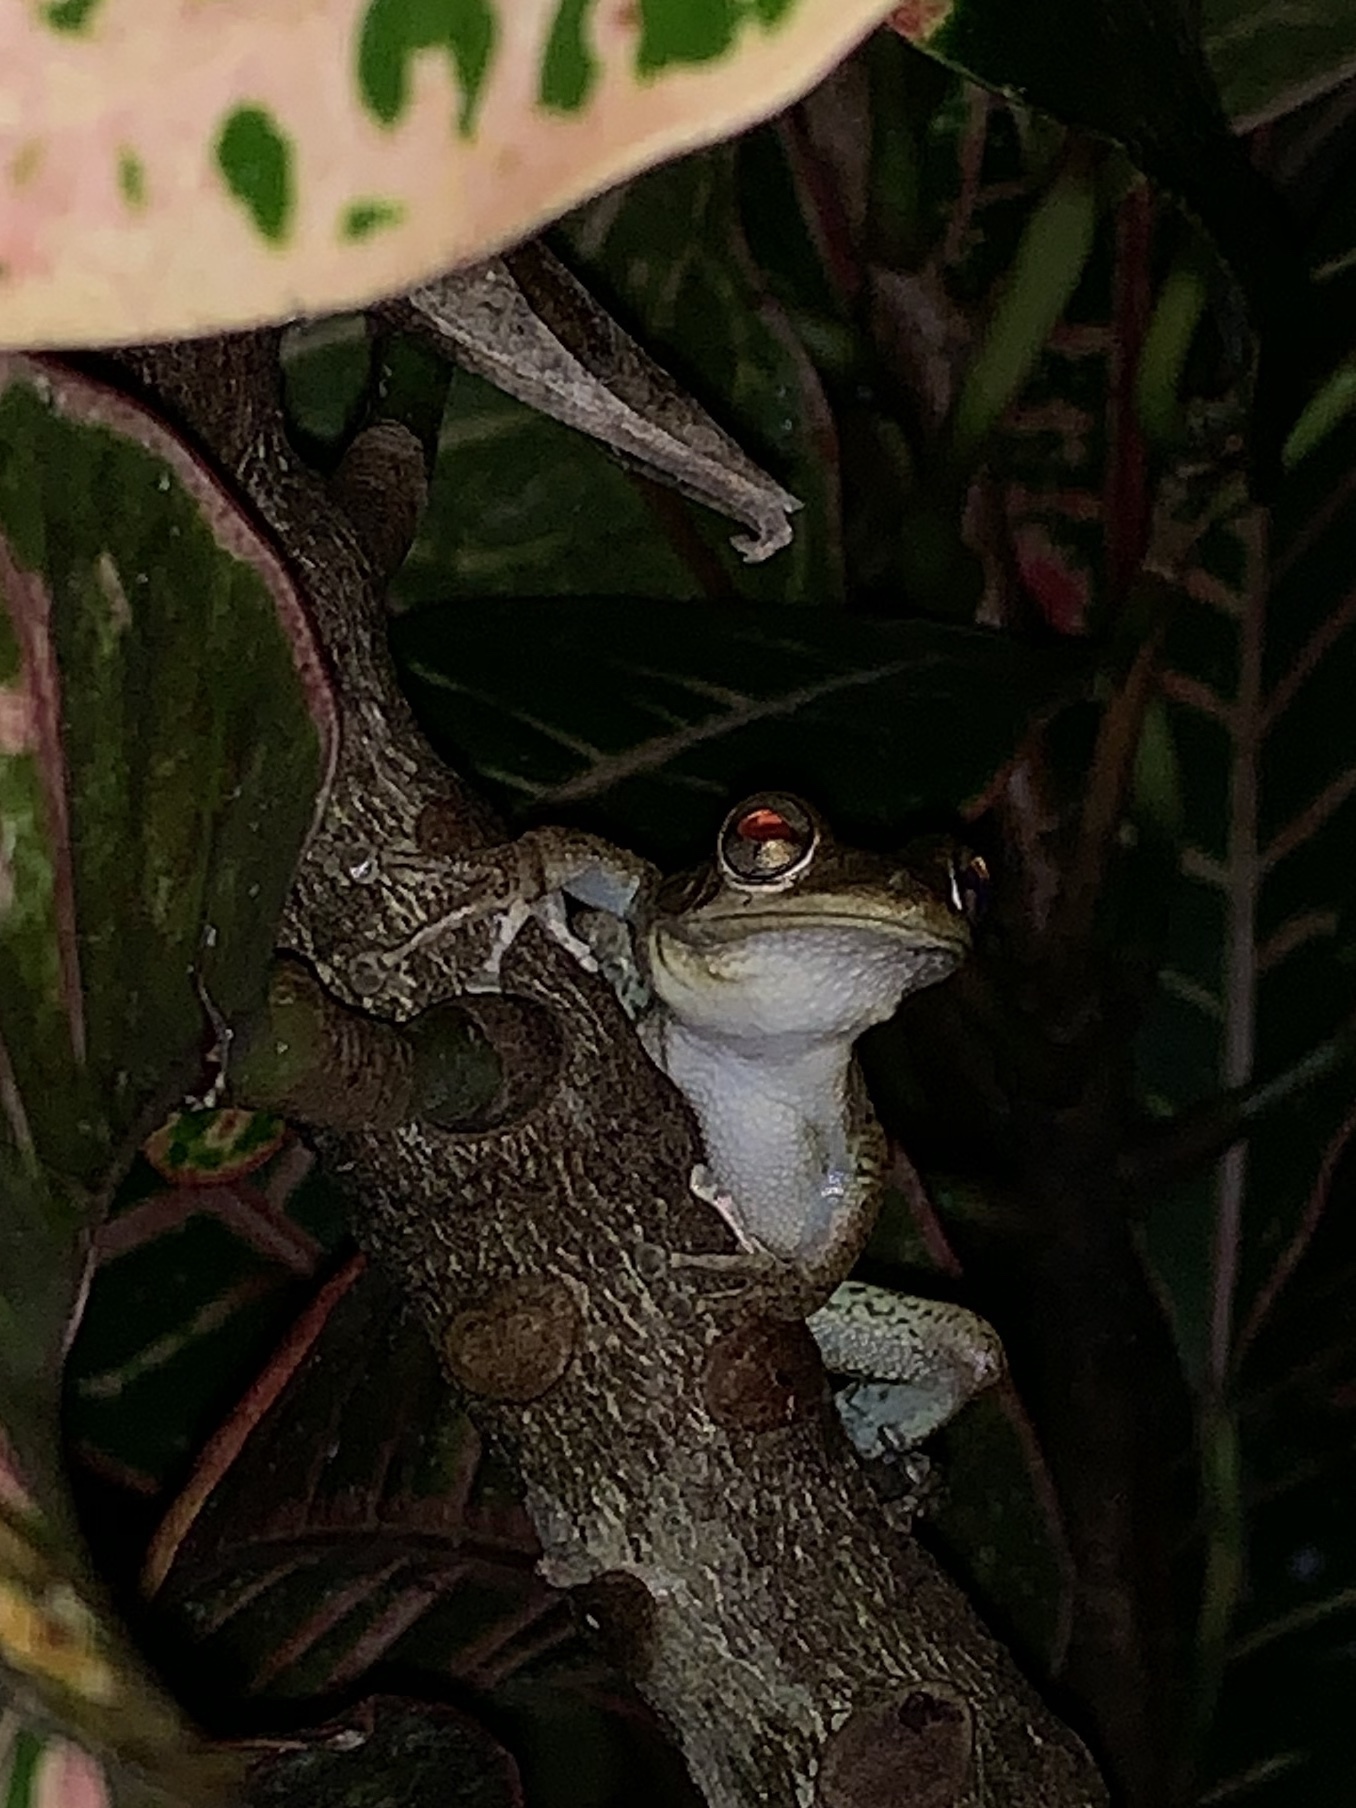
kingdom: Animalia
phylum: Chordata
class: Amphibia
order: Anura
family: Hylidae
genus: Osteopilus
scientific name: Osteopilus septentrionalis
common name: Cuban treefrog
